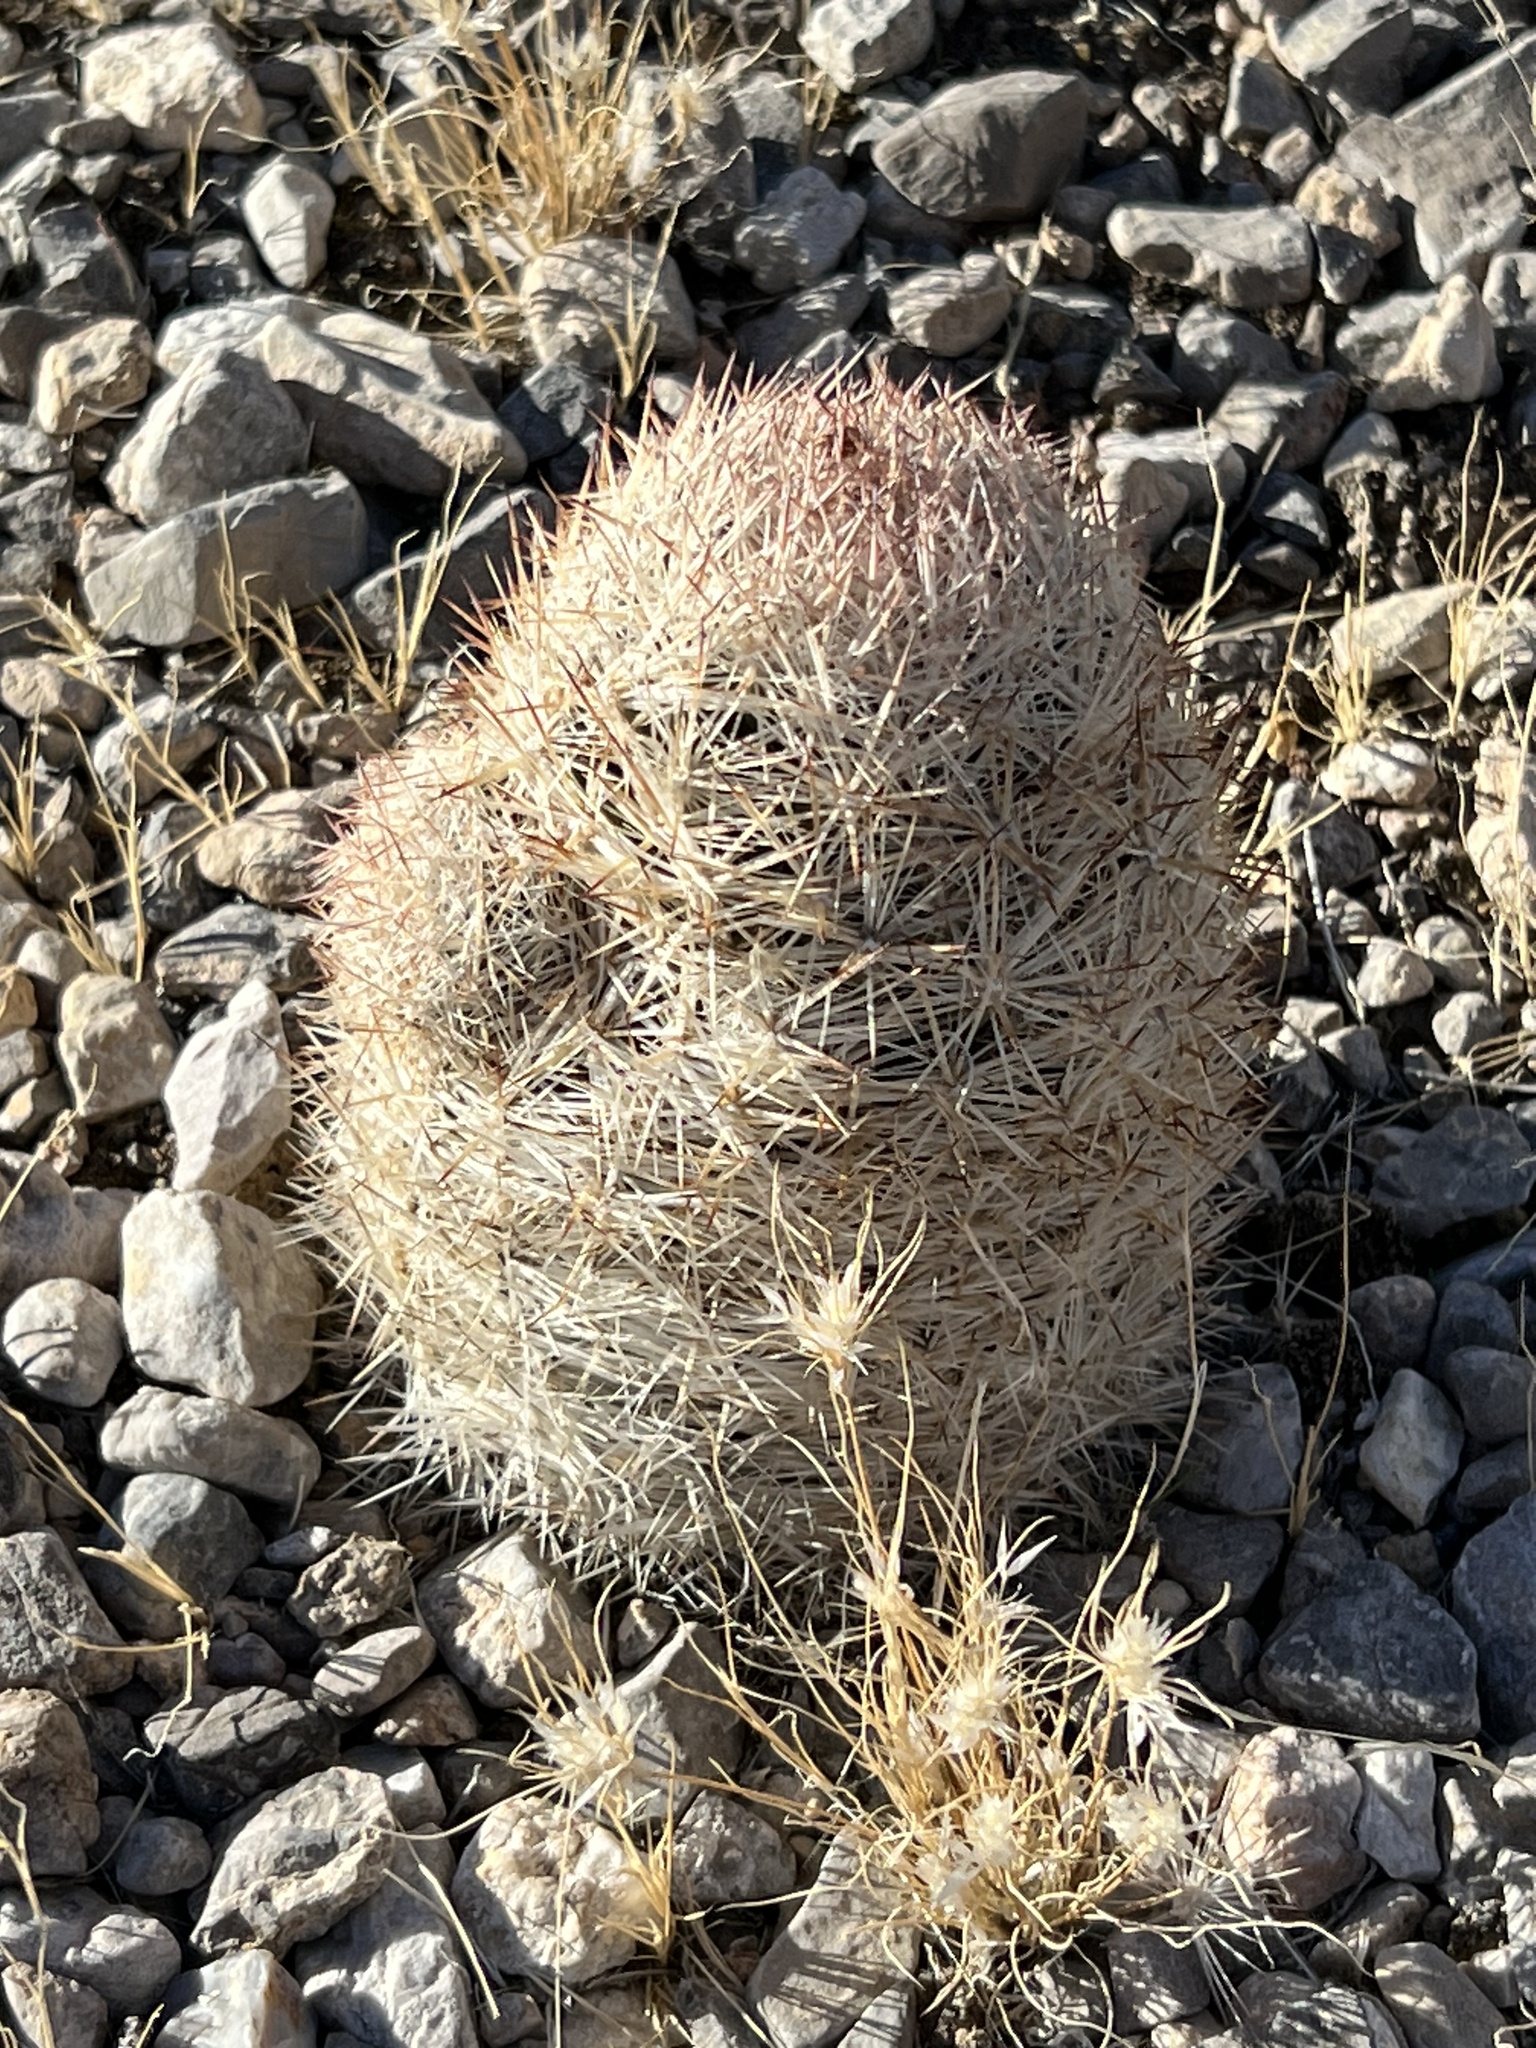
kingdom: Plantae
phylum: Tracheophyta
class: Magnoliopsida
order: Caryophyllales
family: Cactaceae
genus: Pelecyphora
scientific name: Pelecyphora dasyacantha
